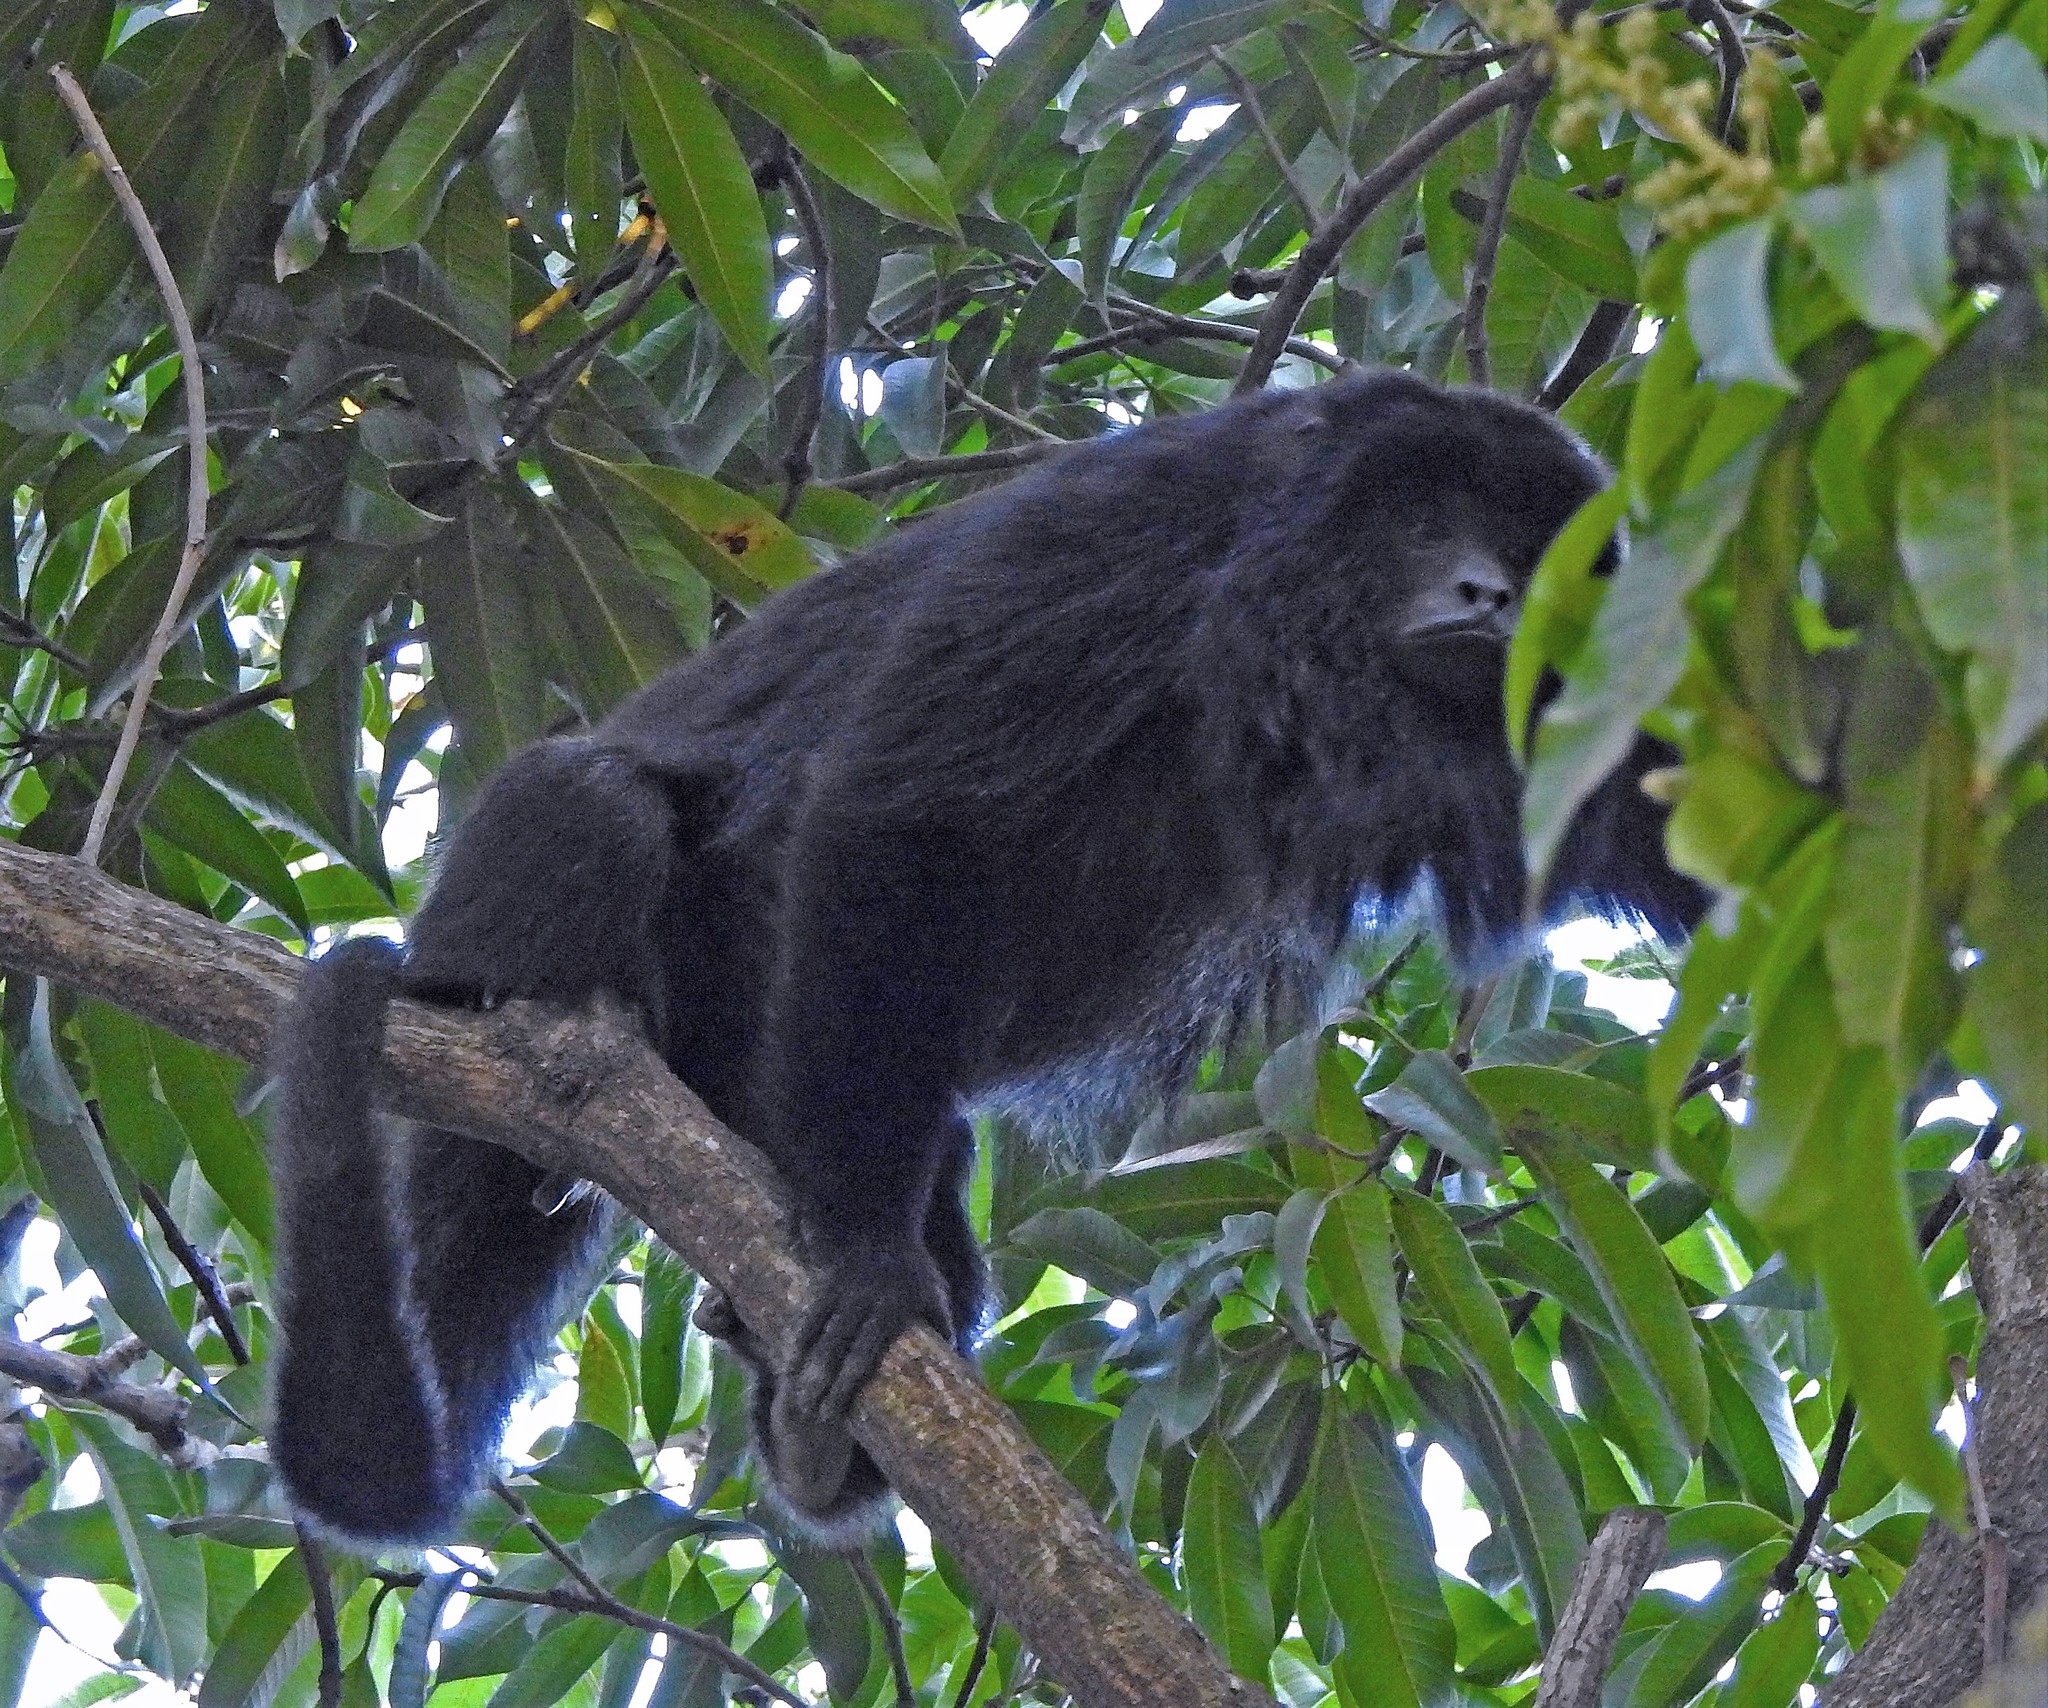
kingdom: Animalia
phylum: Chordata
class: Mammalia
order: Primates
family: Atelidae
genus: Alouatta
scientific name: Alouatta caraya
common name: Black howler
